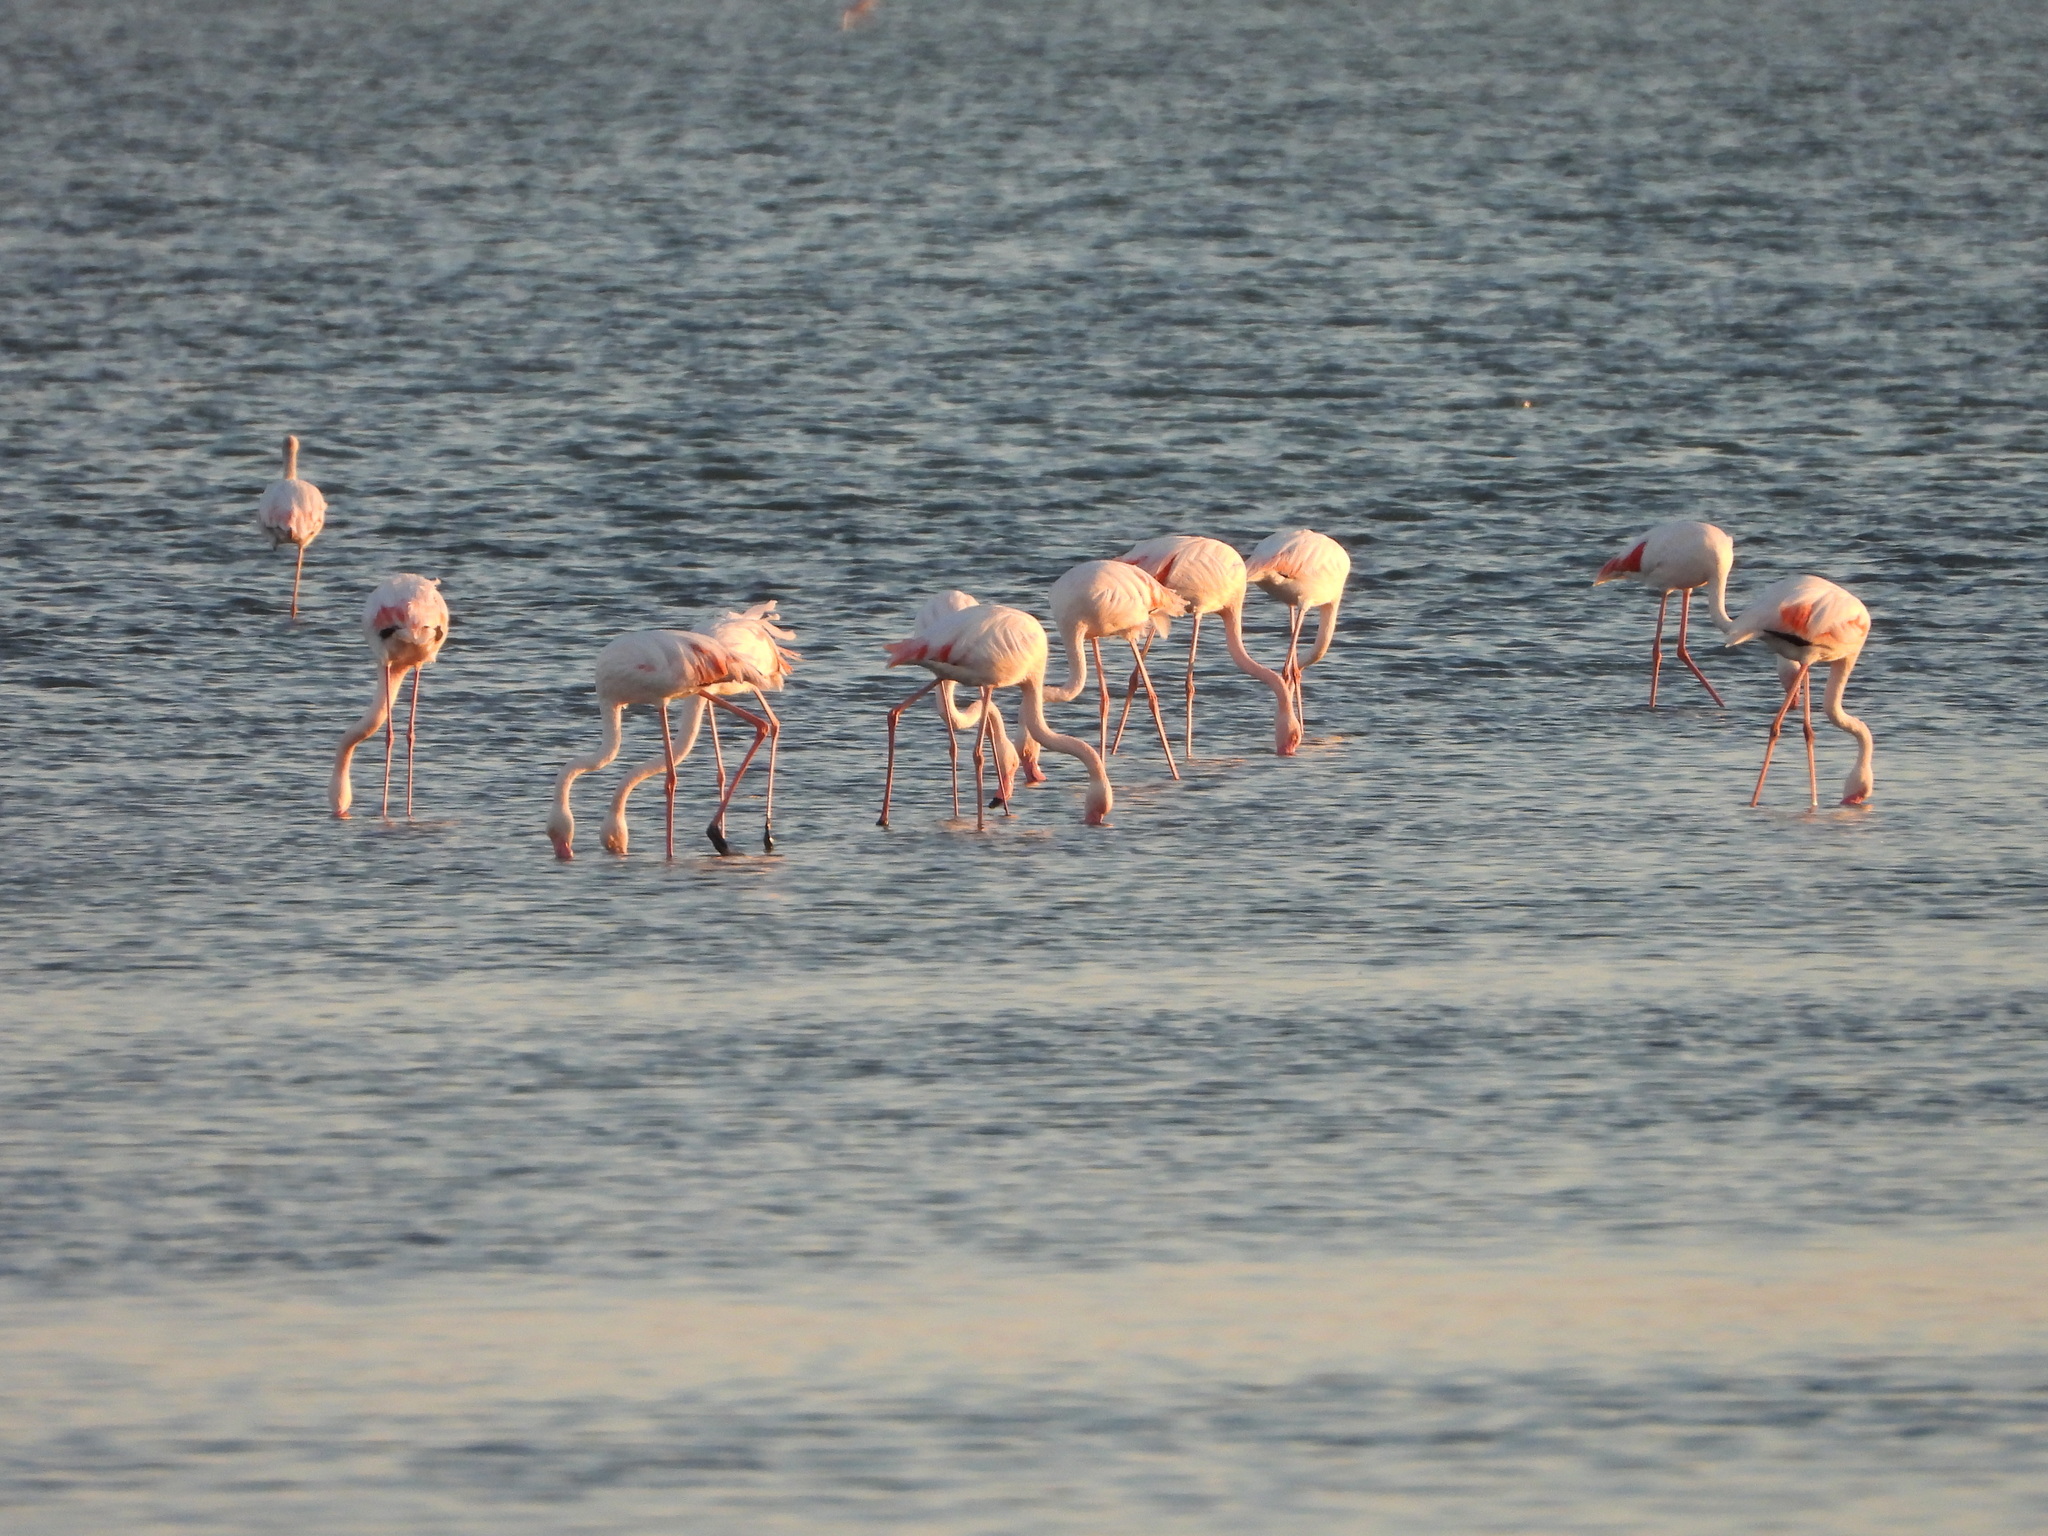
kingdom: Animalia
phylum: Chordata
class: Aves
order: Phoenicopteriformes
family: Phoenicopteridae
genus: Phoenicopterus
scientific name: Phoenicopterus roseus
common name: Greater flamingo
